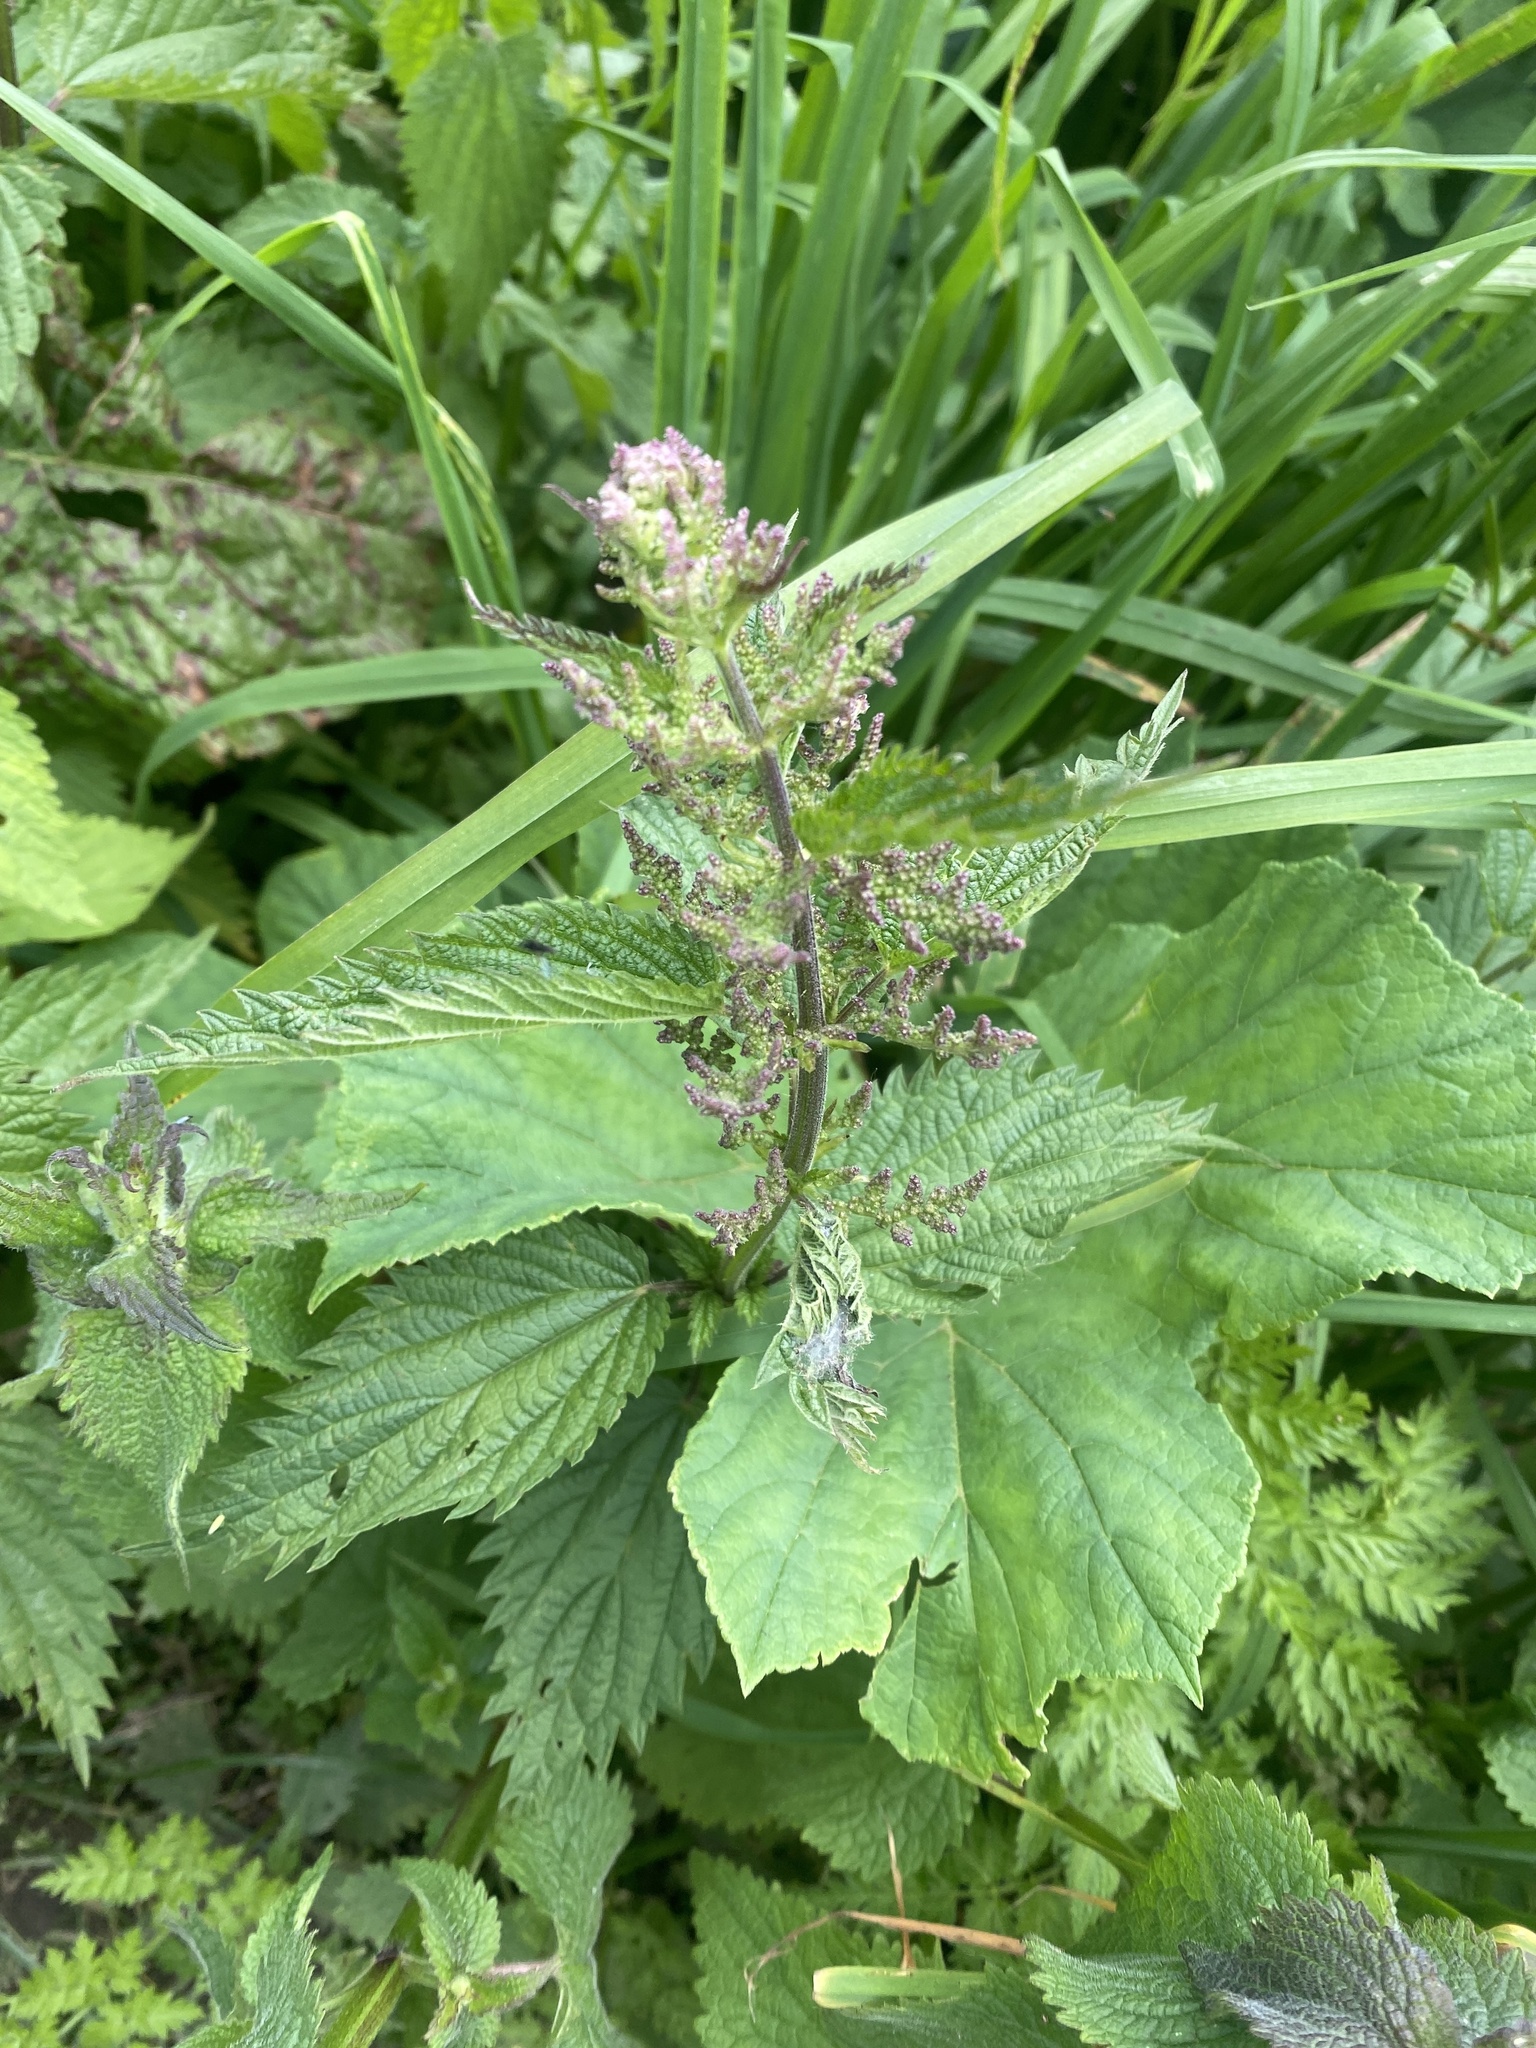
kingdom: Plantae
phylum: Tracheophyta
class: Magnoliopsida
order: Rosales
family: Urticaceae
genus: Urtica
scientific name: Urtica dioica
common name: Common nettle
